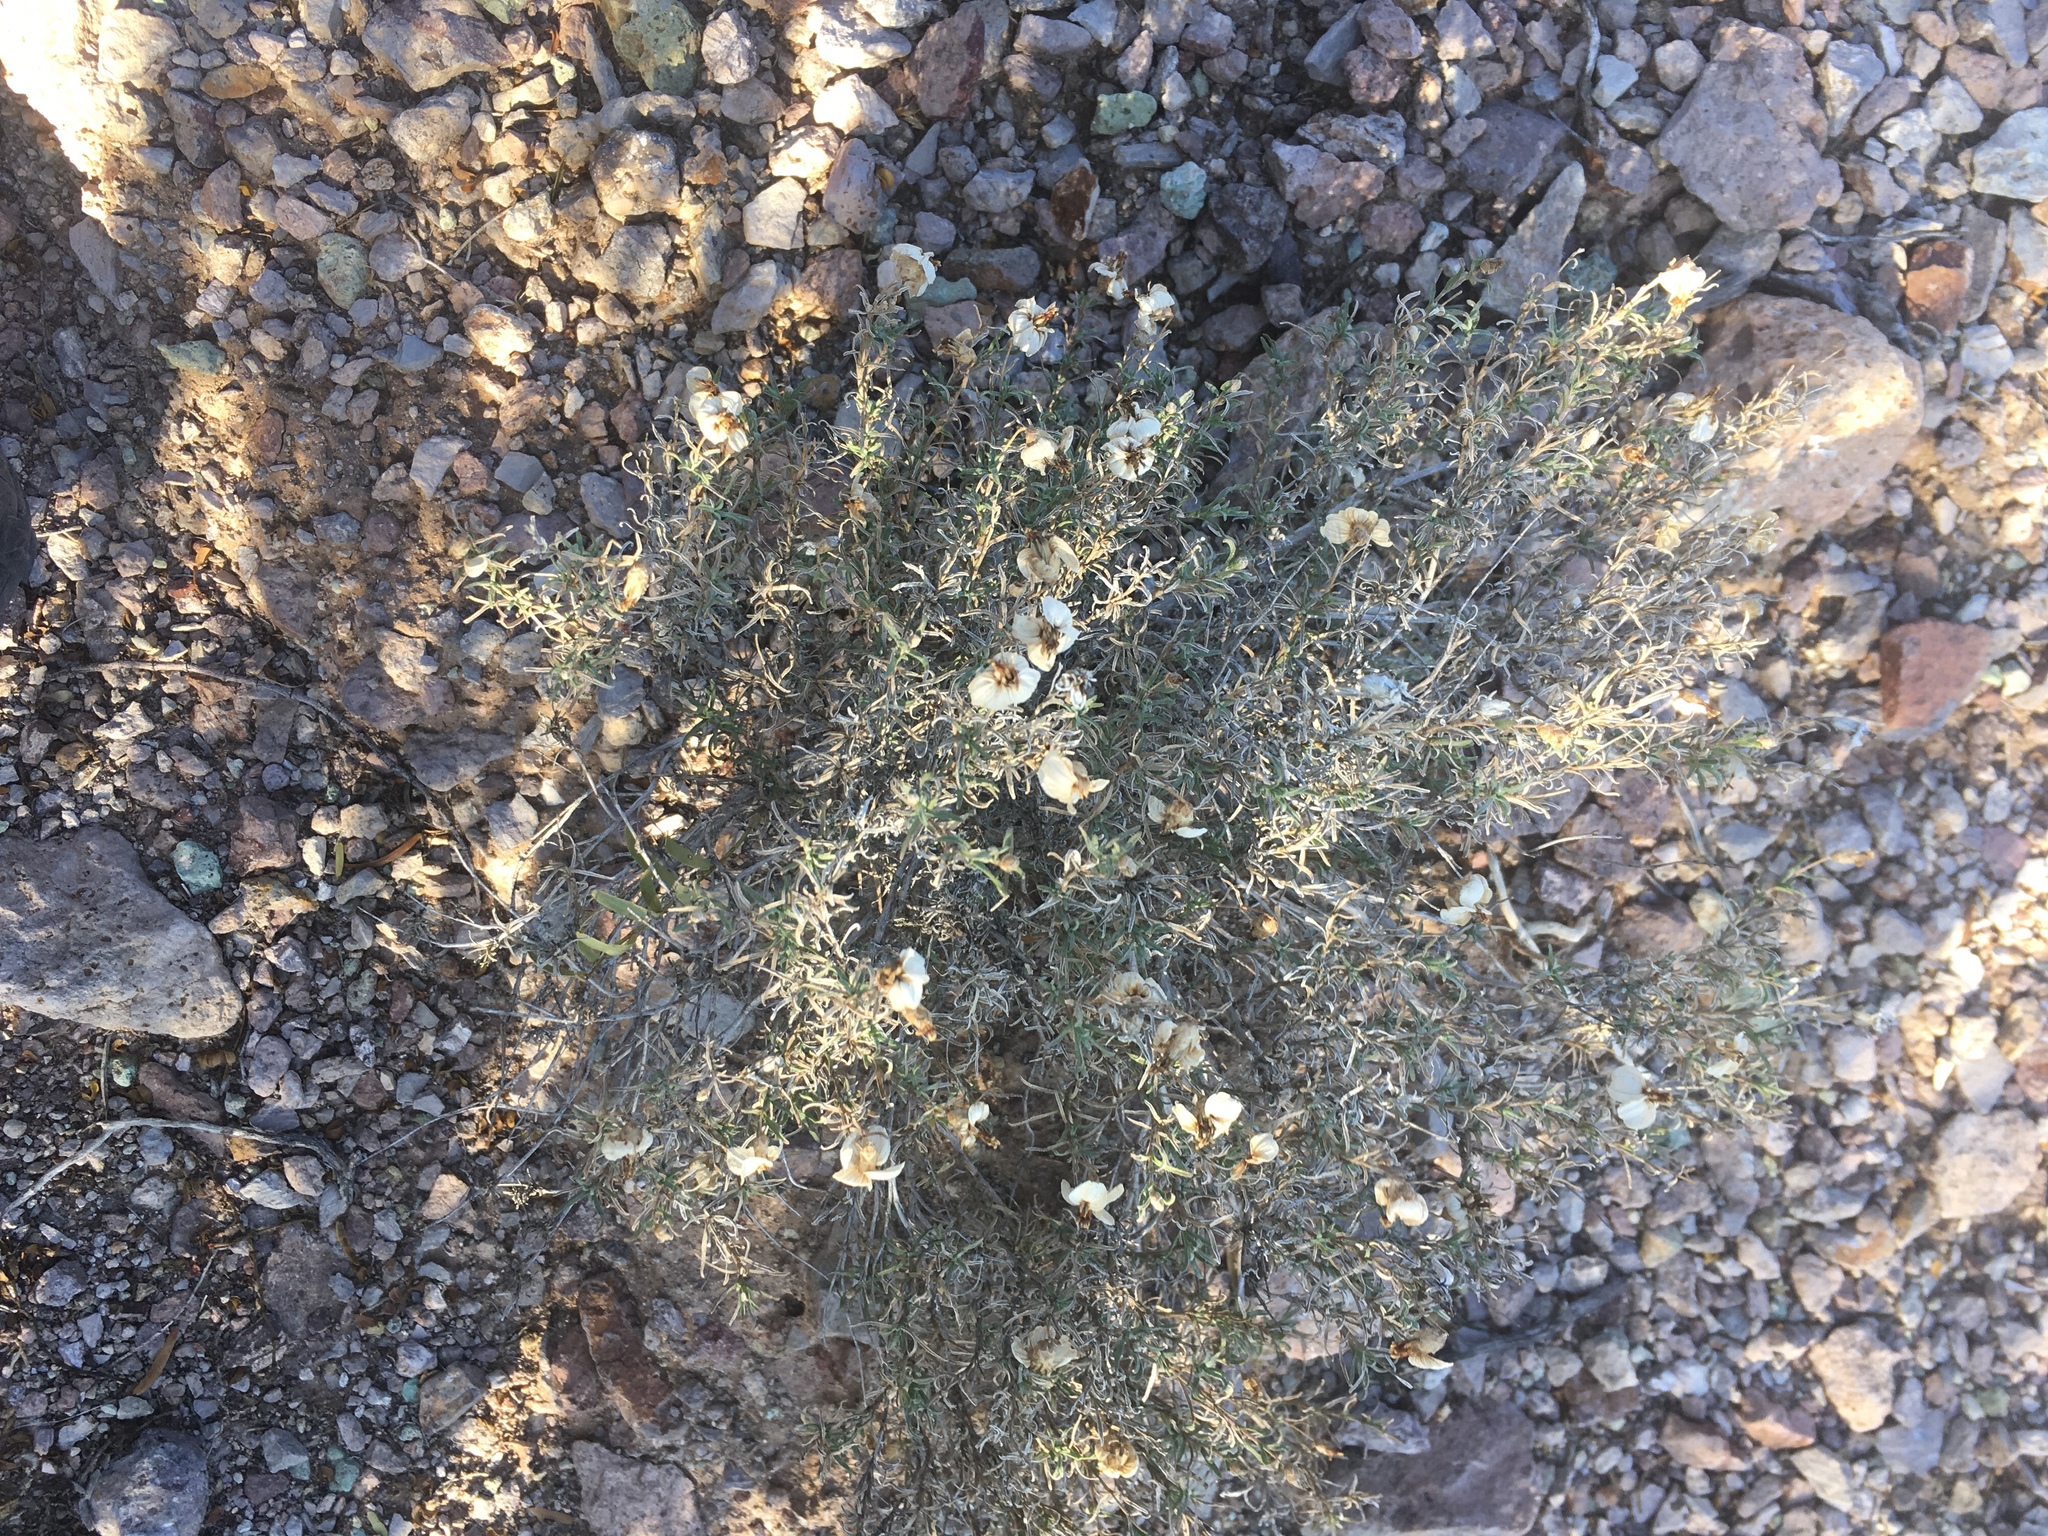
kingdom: Plantae
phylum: Tracheophyta
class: Magnoliopsida
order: Asterales
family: Asteraceae
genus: Zinnia
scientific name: Zinnia acerosa
